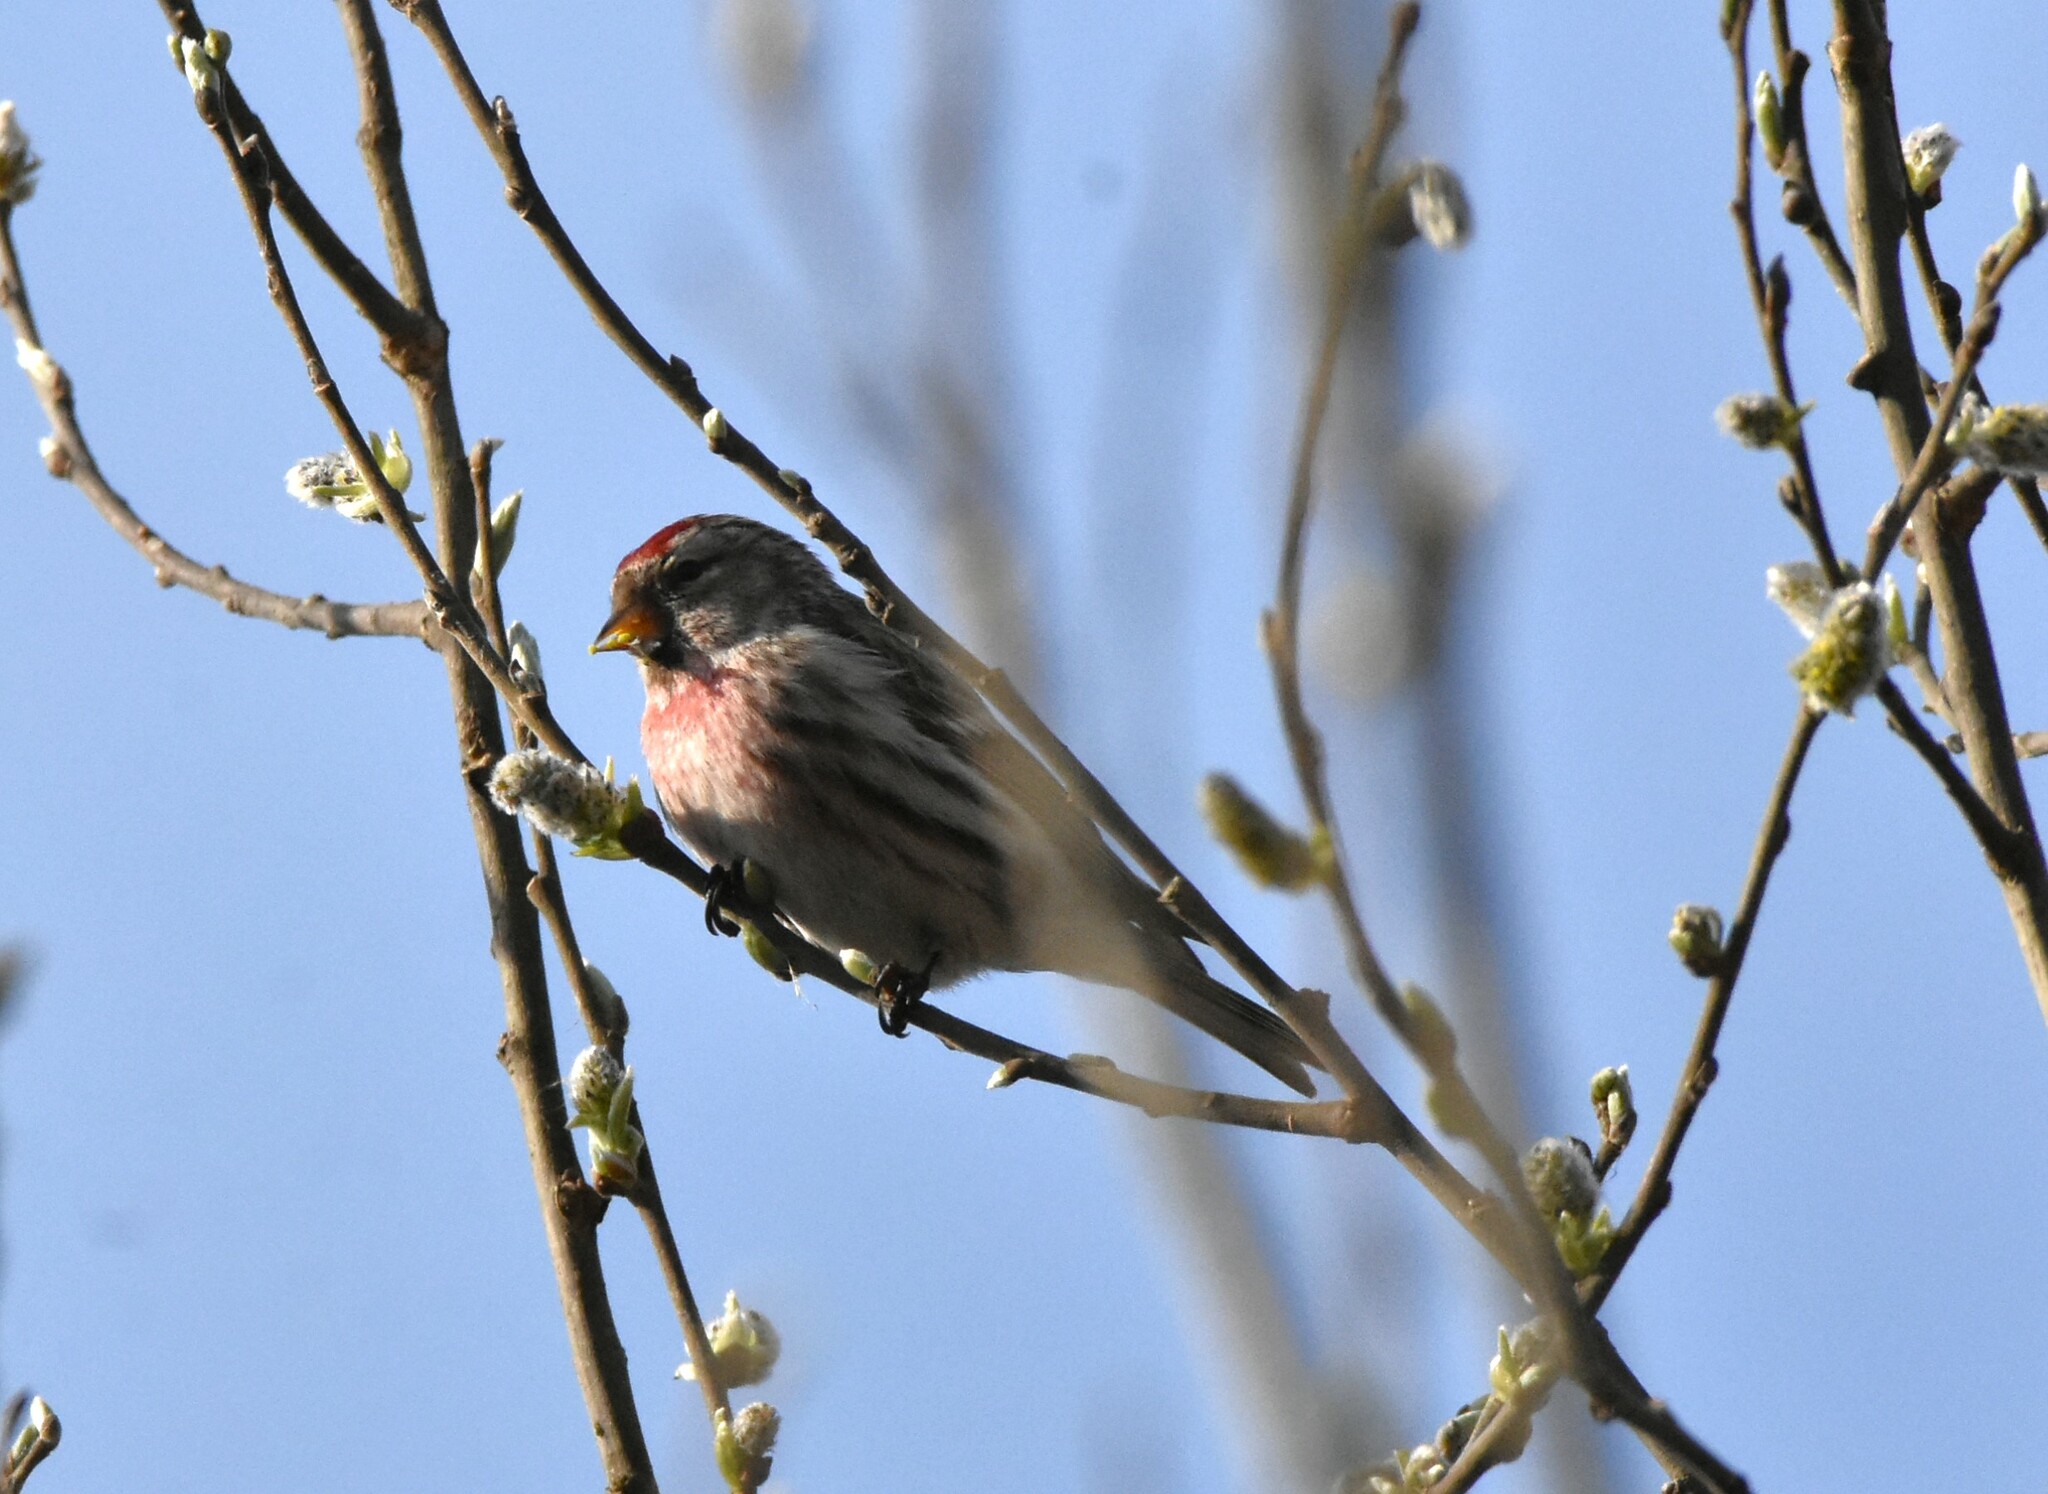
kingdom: Animalia
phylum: Chordata
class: Aves
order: Passeriformes
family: Fringillidae
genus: Acanthis
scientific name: Acanthis flammea
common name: Common redpoll
